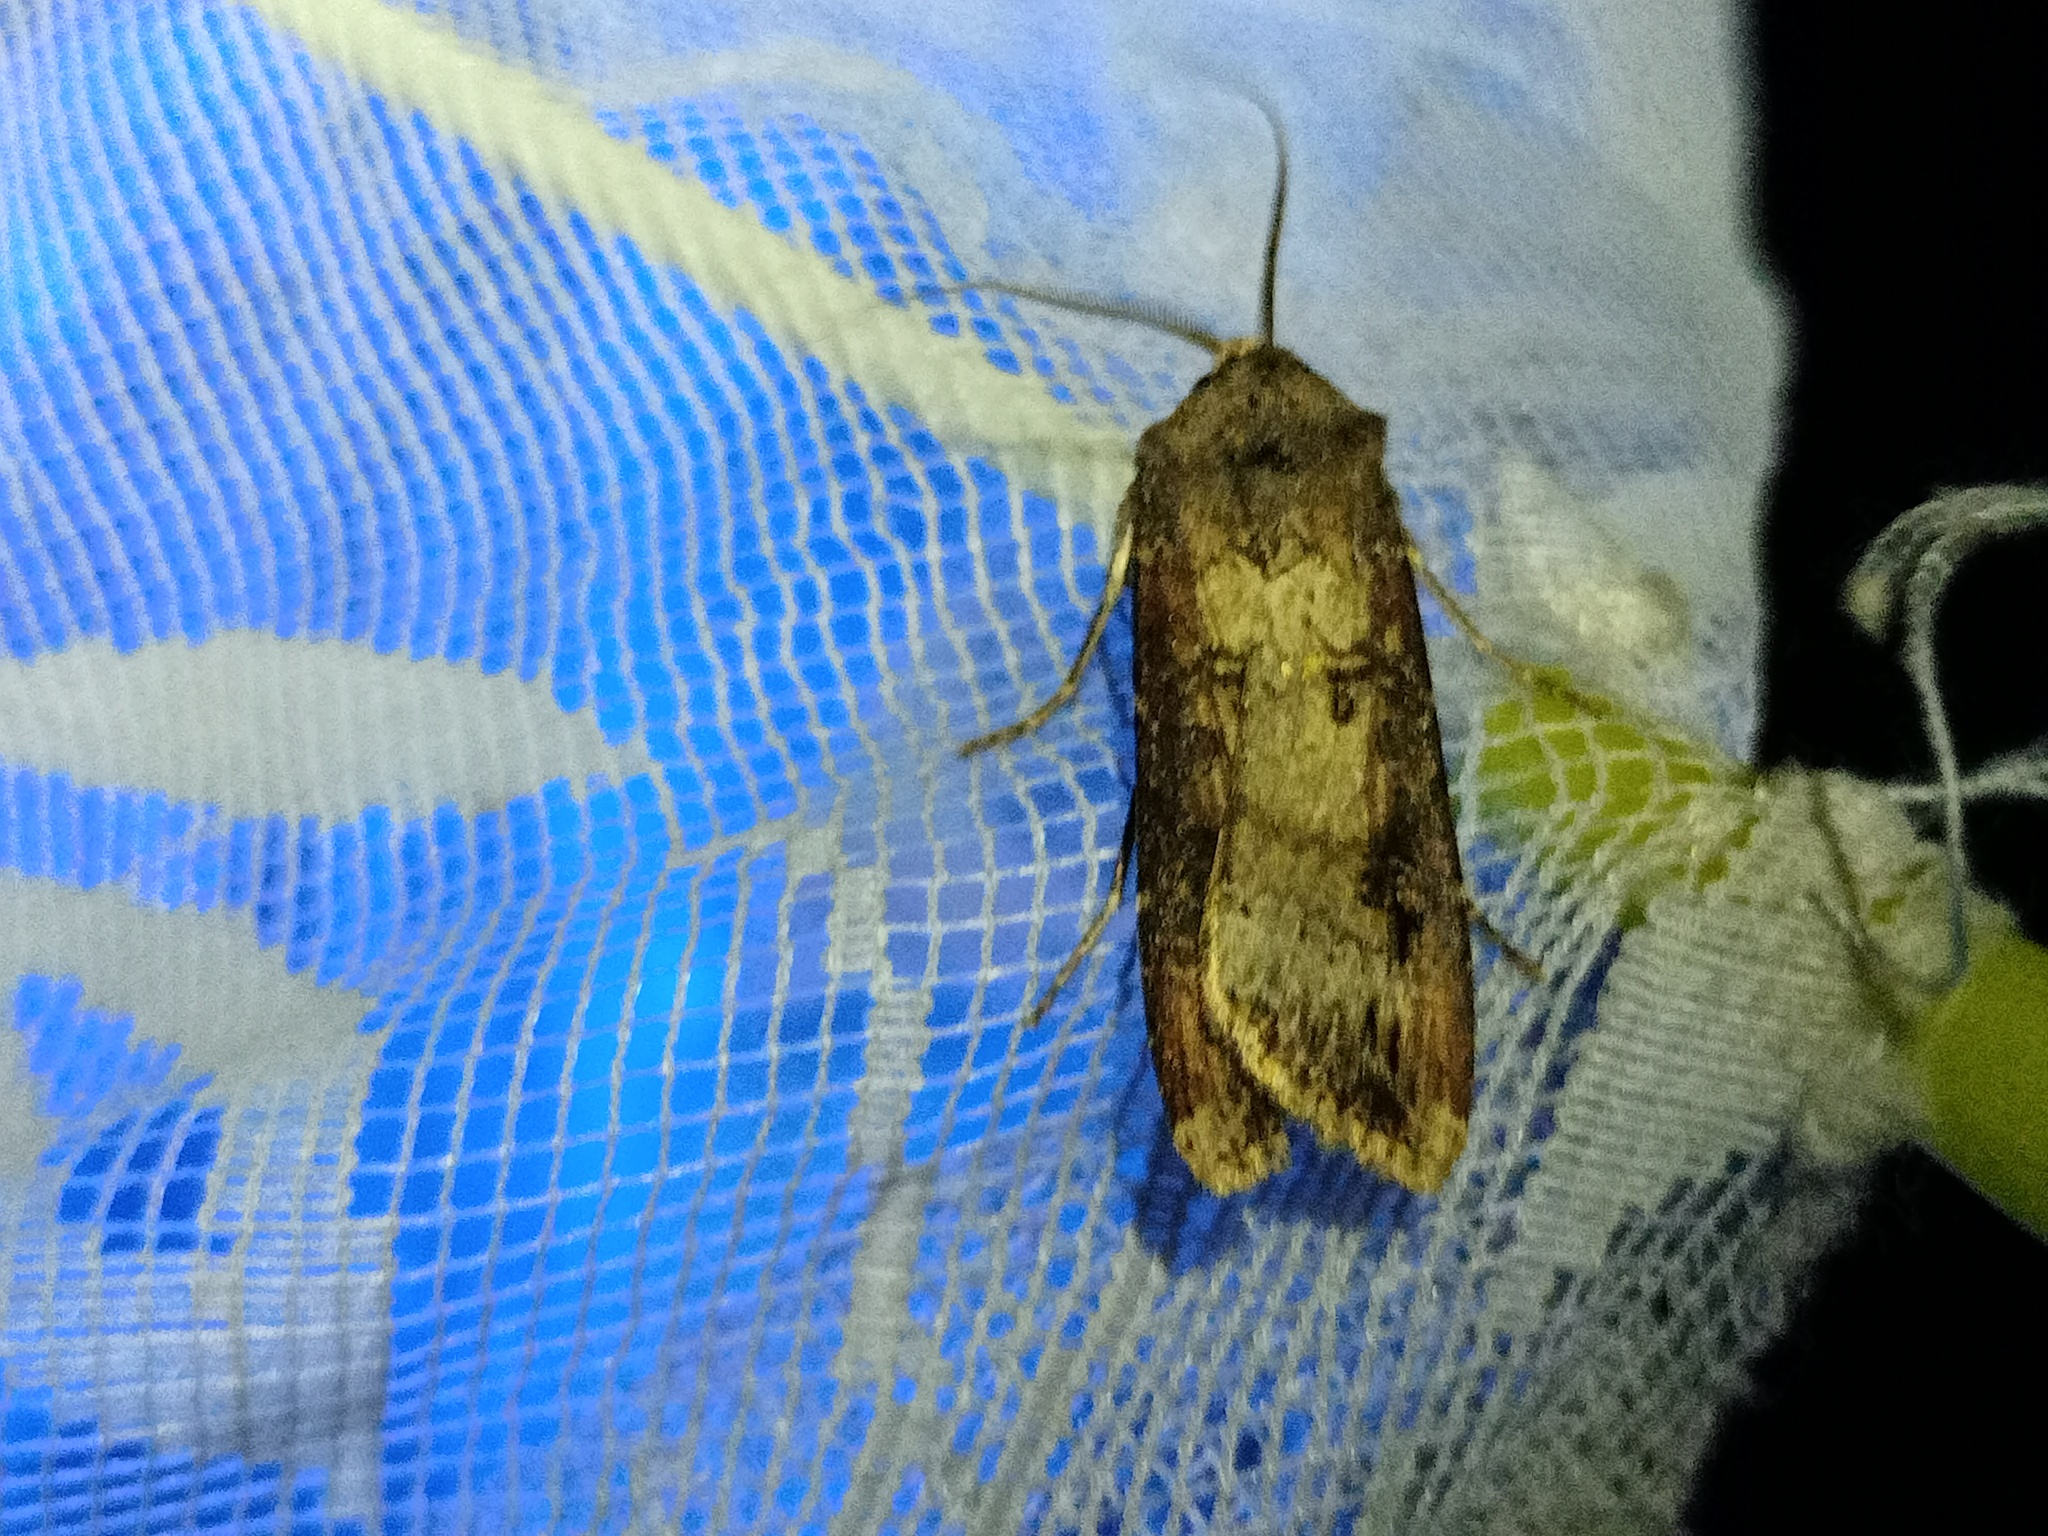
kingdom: Animalia
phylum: Arthropoda
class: Insecta
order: Lepidoptera
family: Noctuidae
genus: Agrotis
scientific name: Agrotis ipsilon
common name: Dark sword-grass
